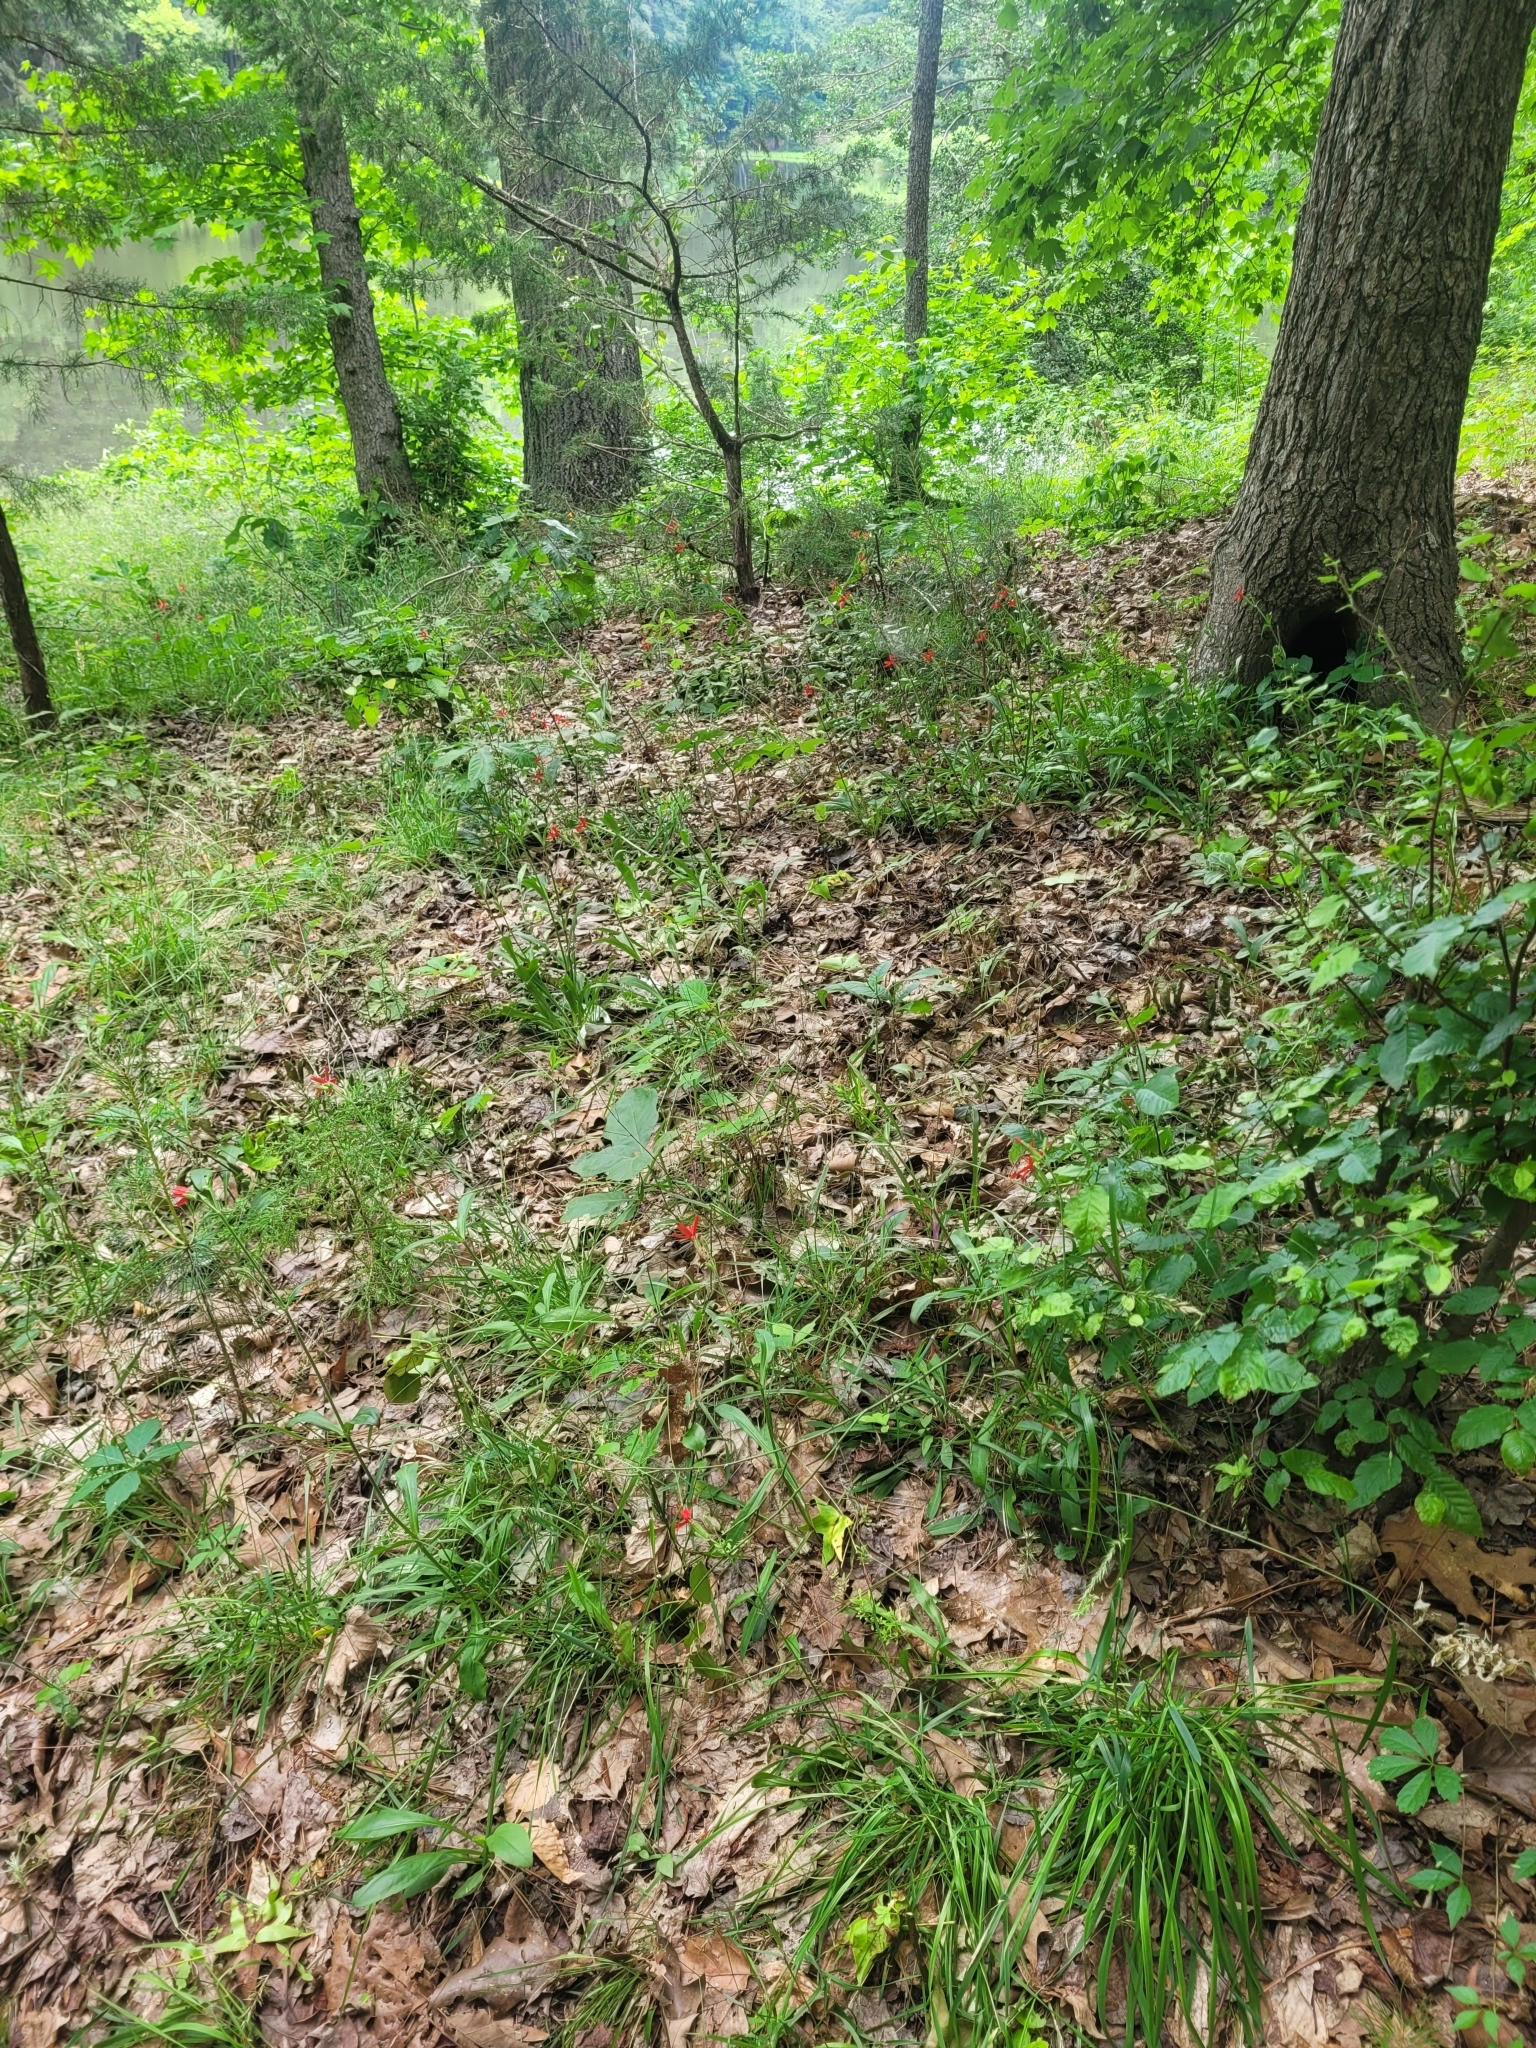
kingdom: Plantae
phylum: Tracheophyta
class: Magnoliopsida
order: Caryophyllales
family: Caryophyllaceae
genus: Silene
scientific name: Silene virginica
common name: Fire-pink
